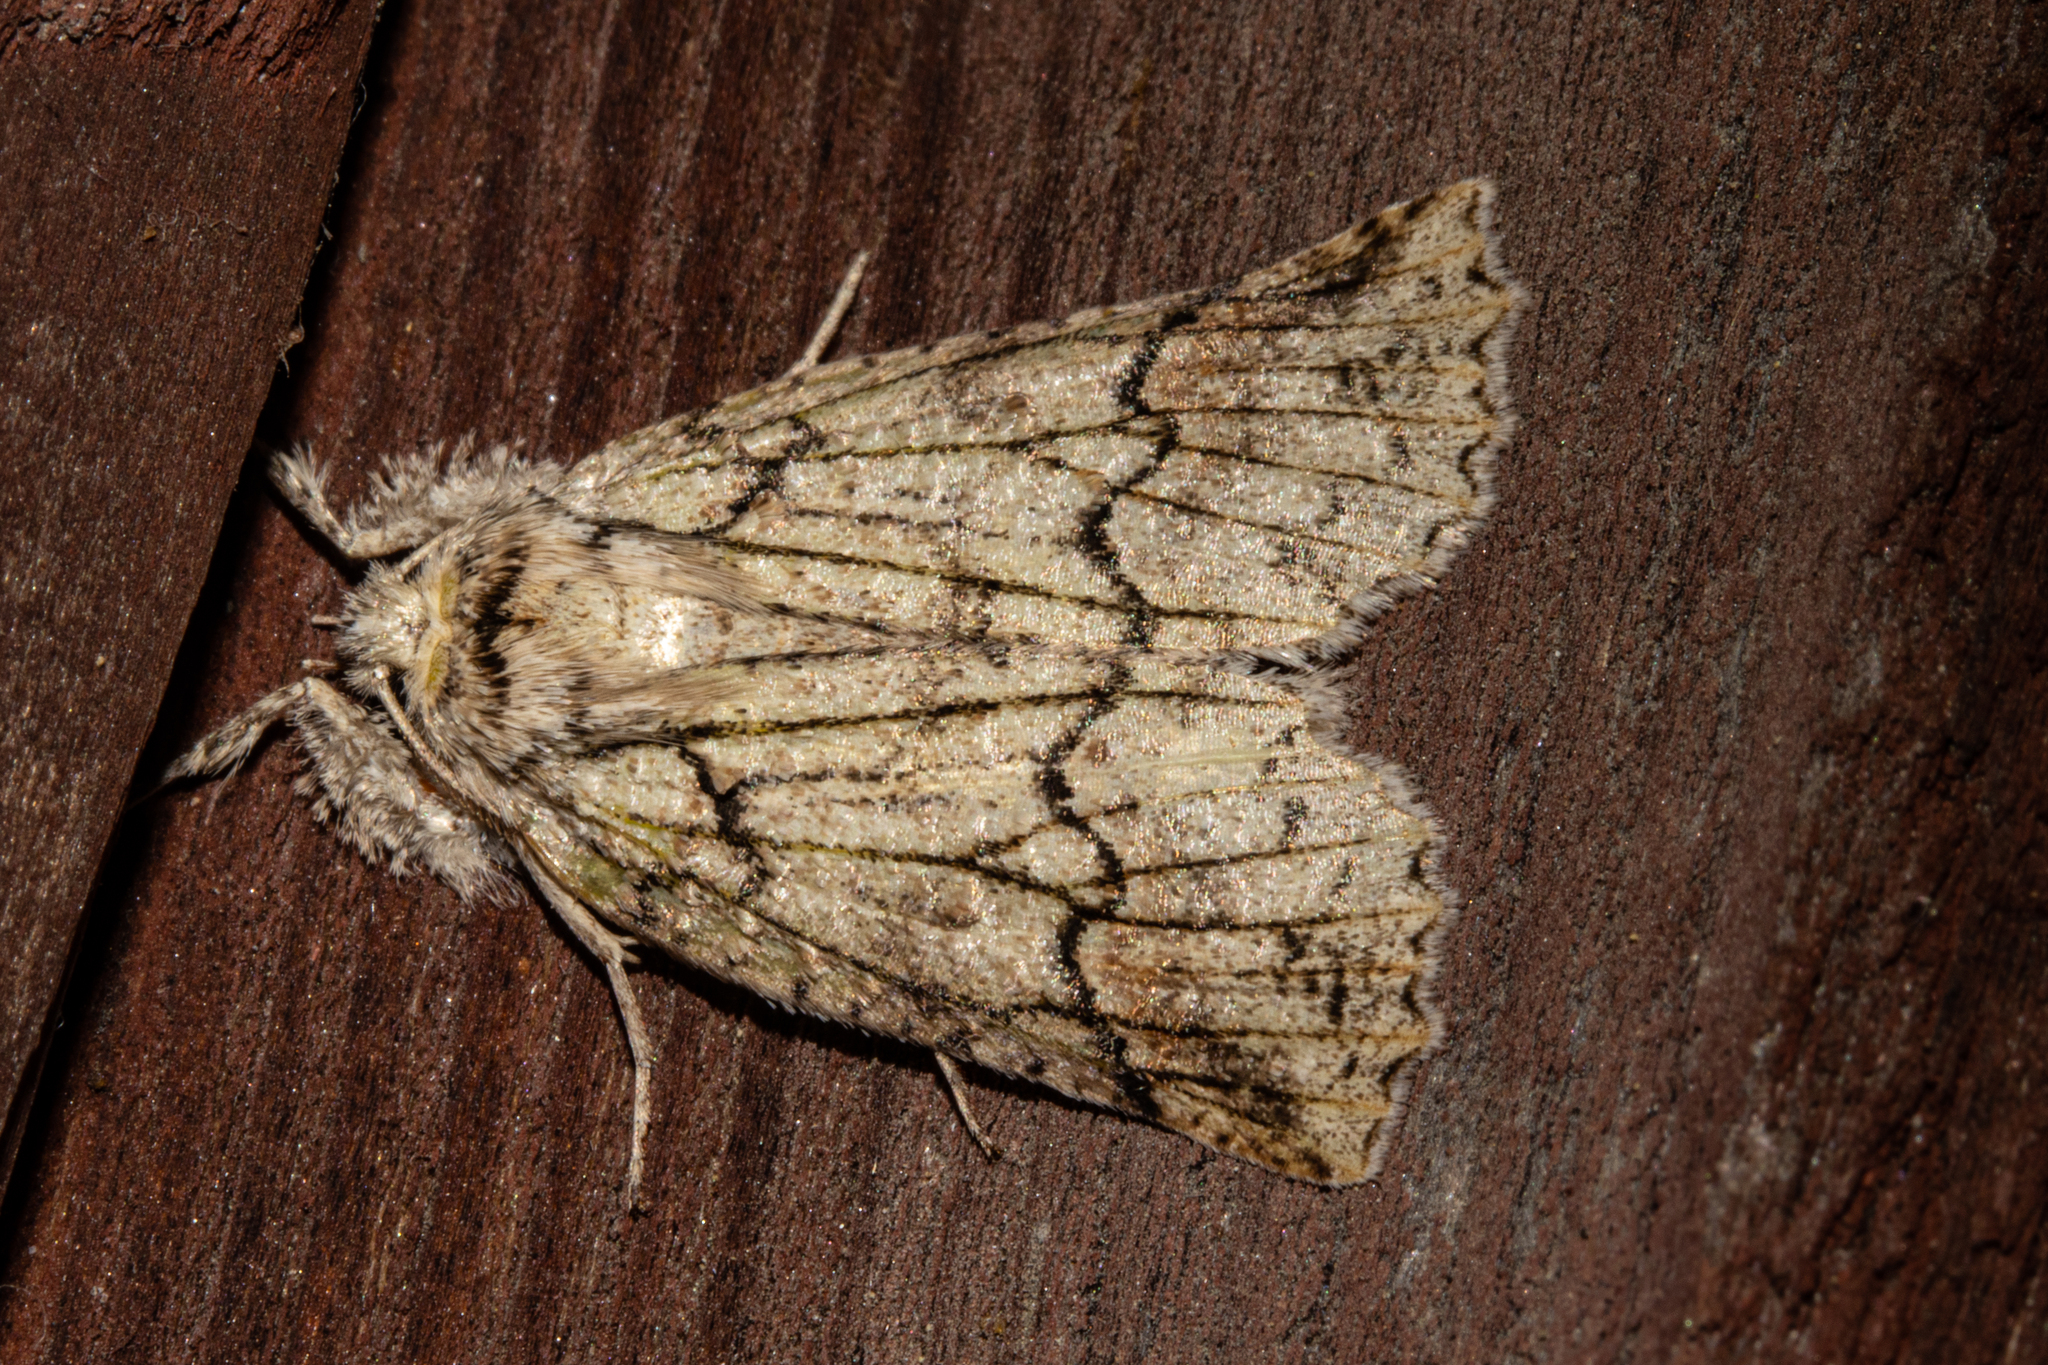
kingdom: Animalia
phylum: Arthropoda
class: Insecta
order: Lepidoptera
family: Geometridae
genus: Declana
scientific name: Declana floccosa
